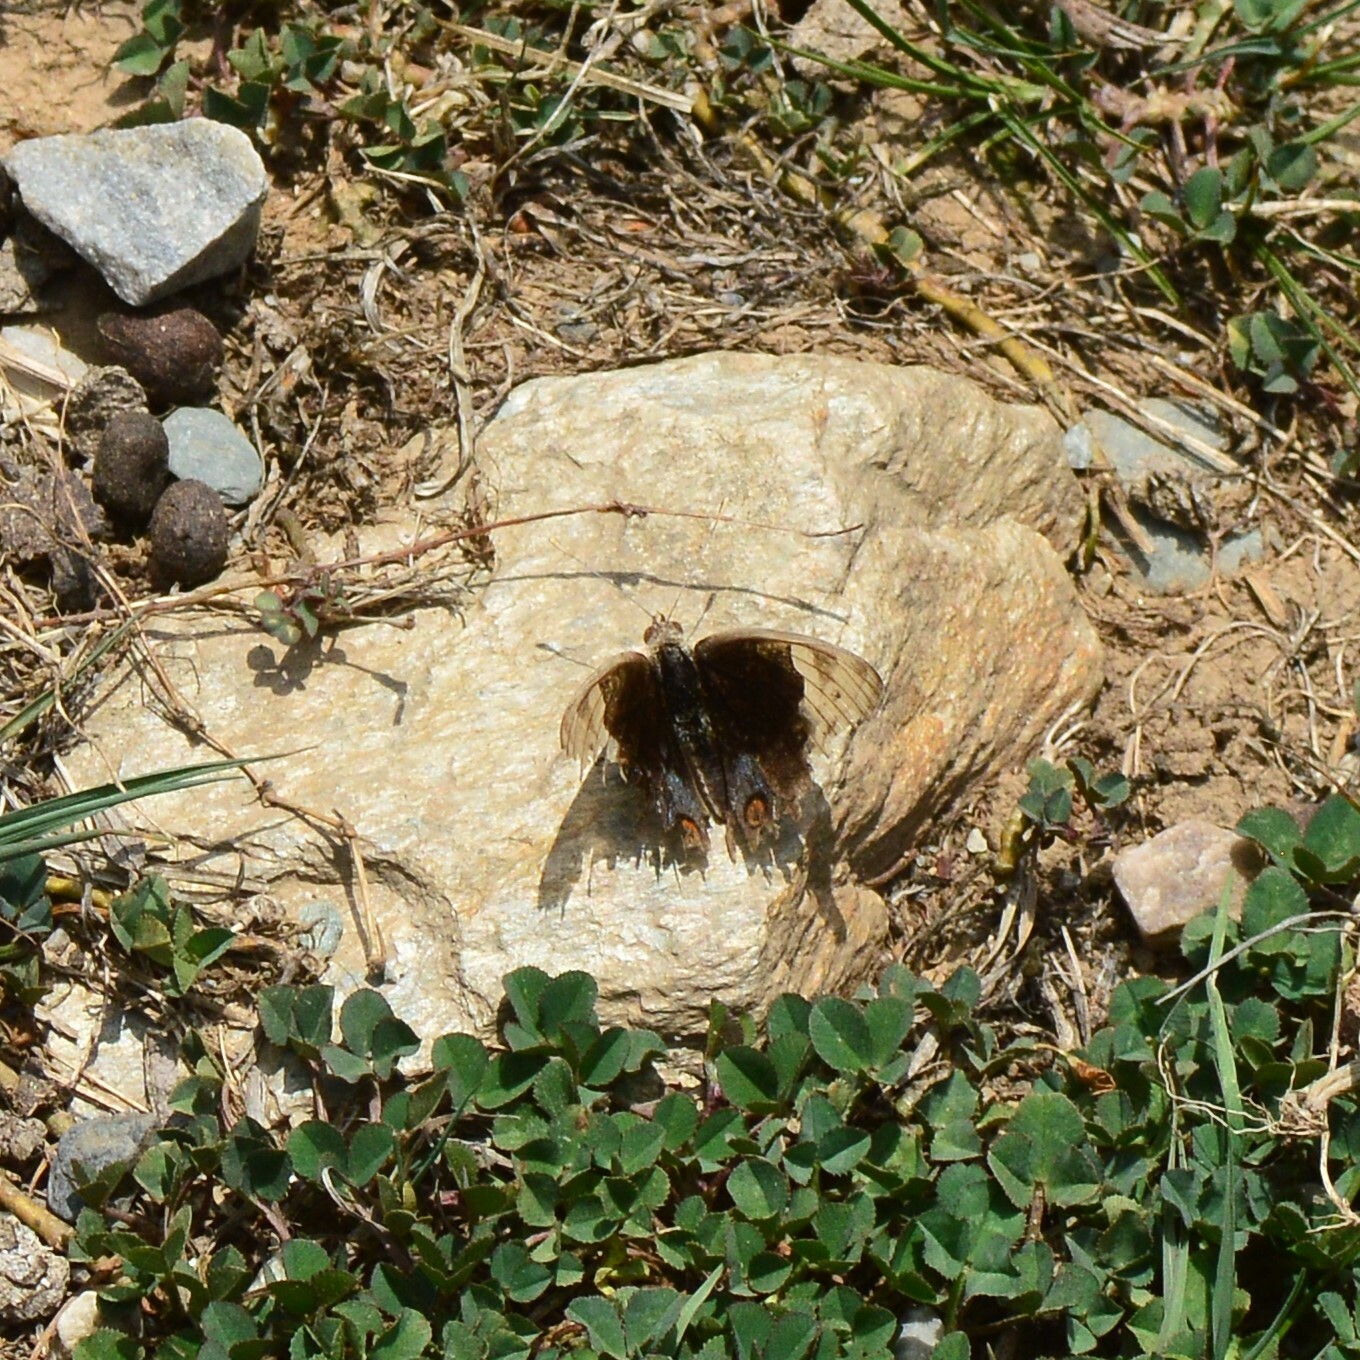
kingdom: Animalia
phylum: Arthropoda
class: Insecta
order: Lepidoptera
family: Nymphalidae
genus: Junonia
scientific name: Junonia orithya
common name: Blue pansy
